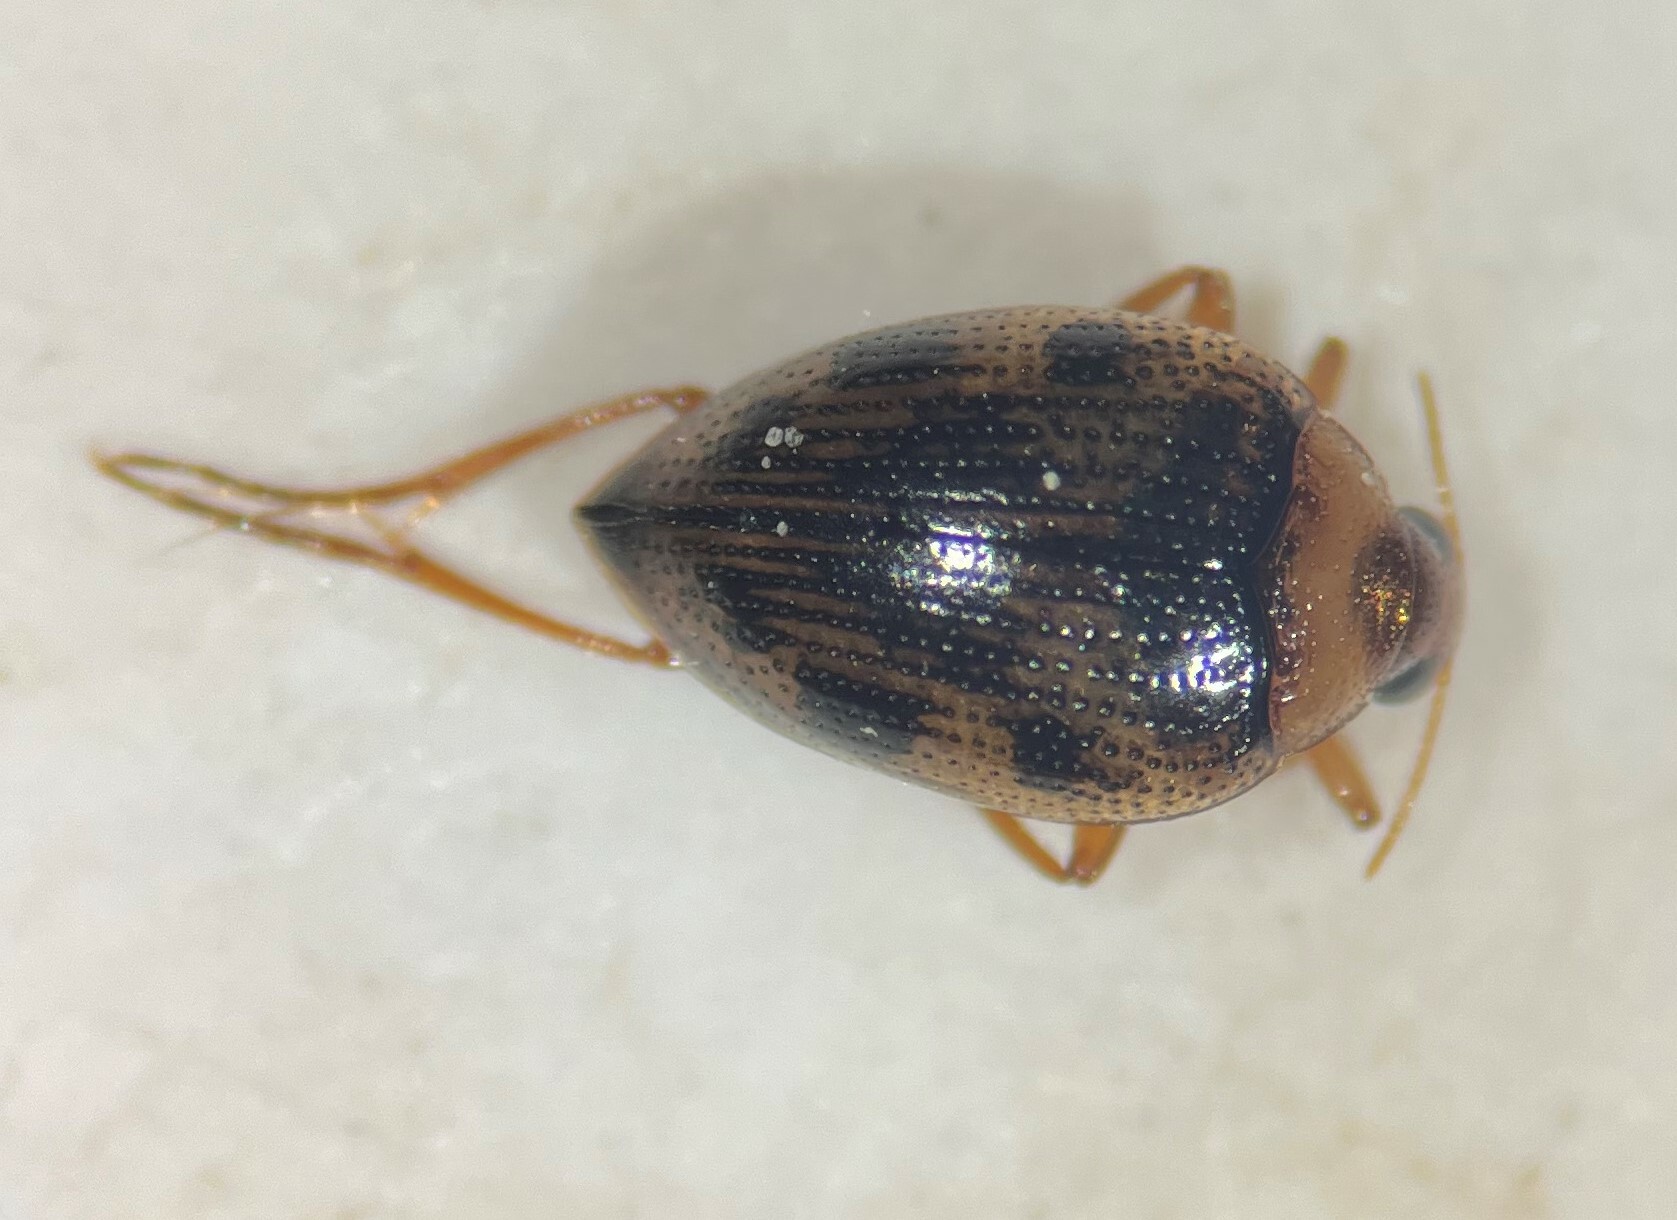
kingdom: Animalia
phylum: Arthropoda
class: Insecta
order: Coleoptera
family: Haliplidae
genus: Haliplus
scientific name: Haliplus immaculicollis
